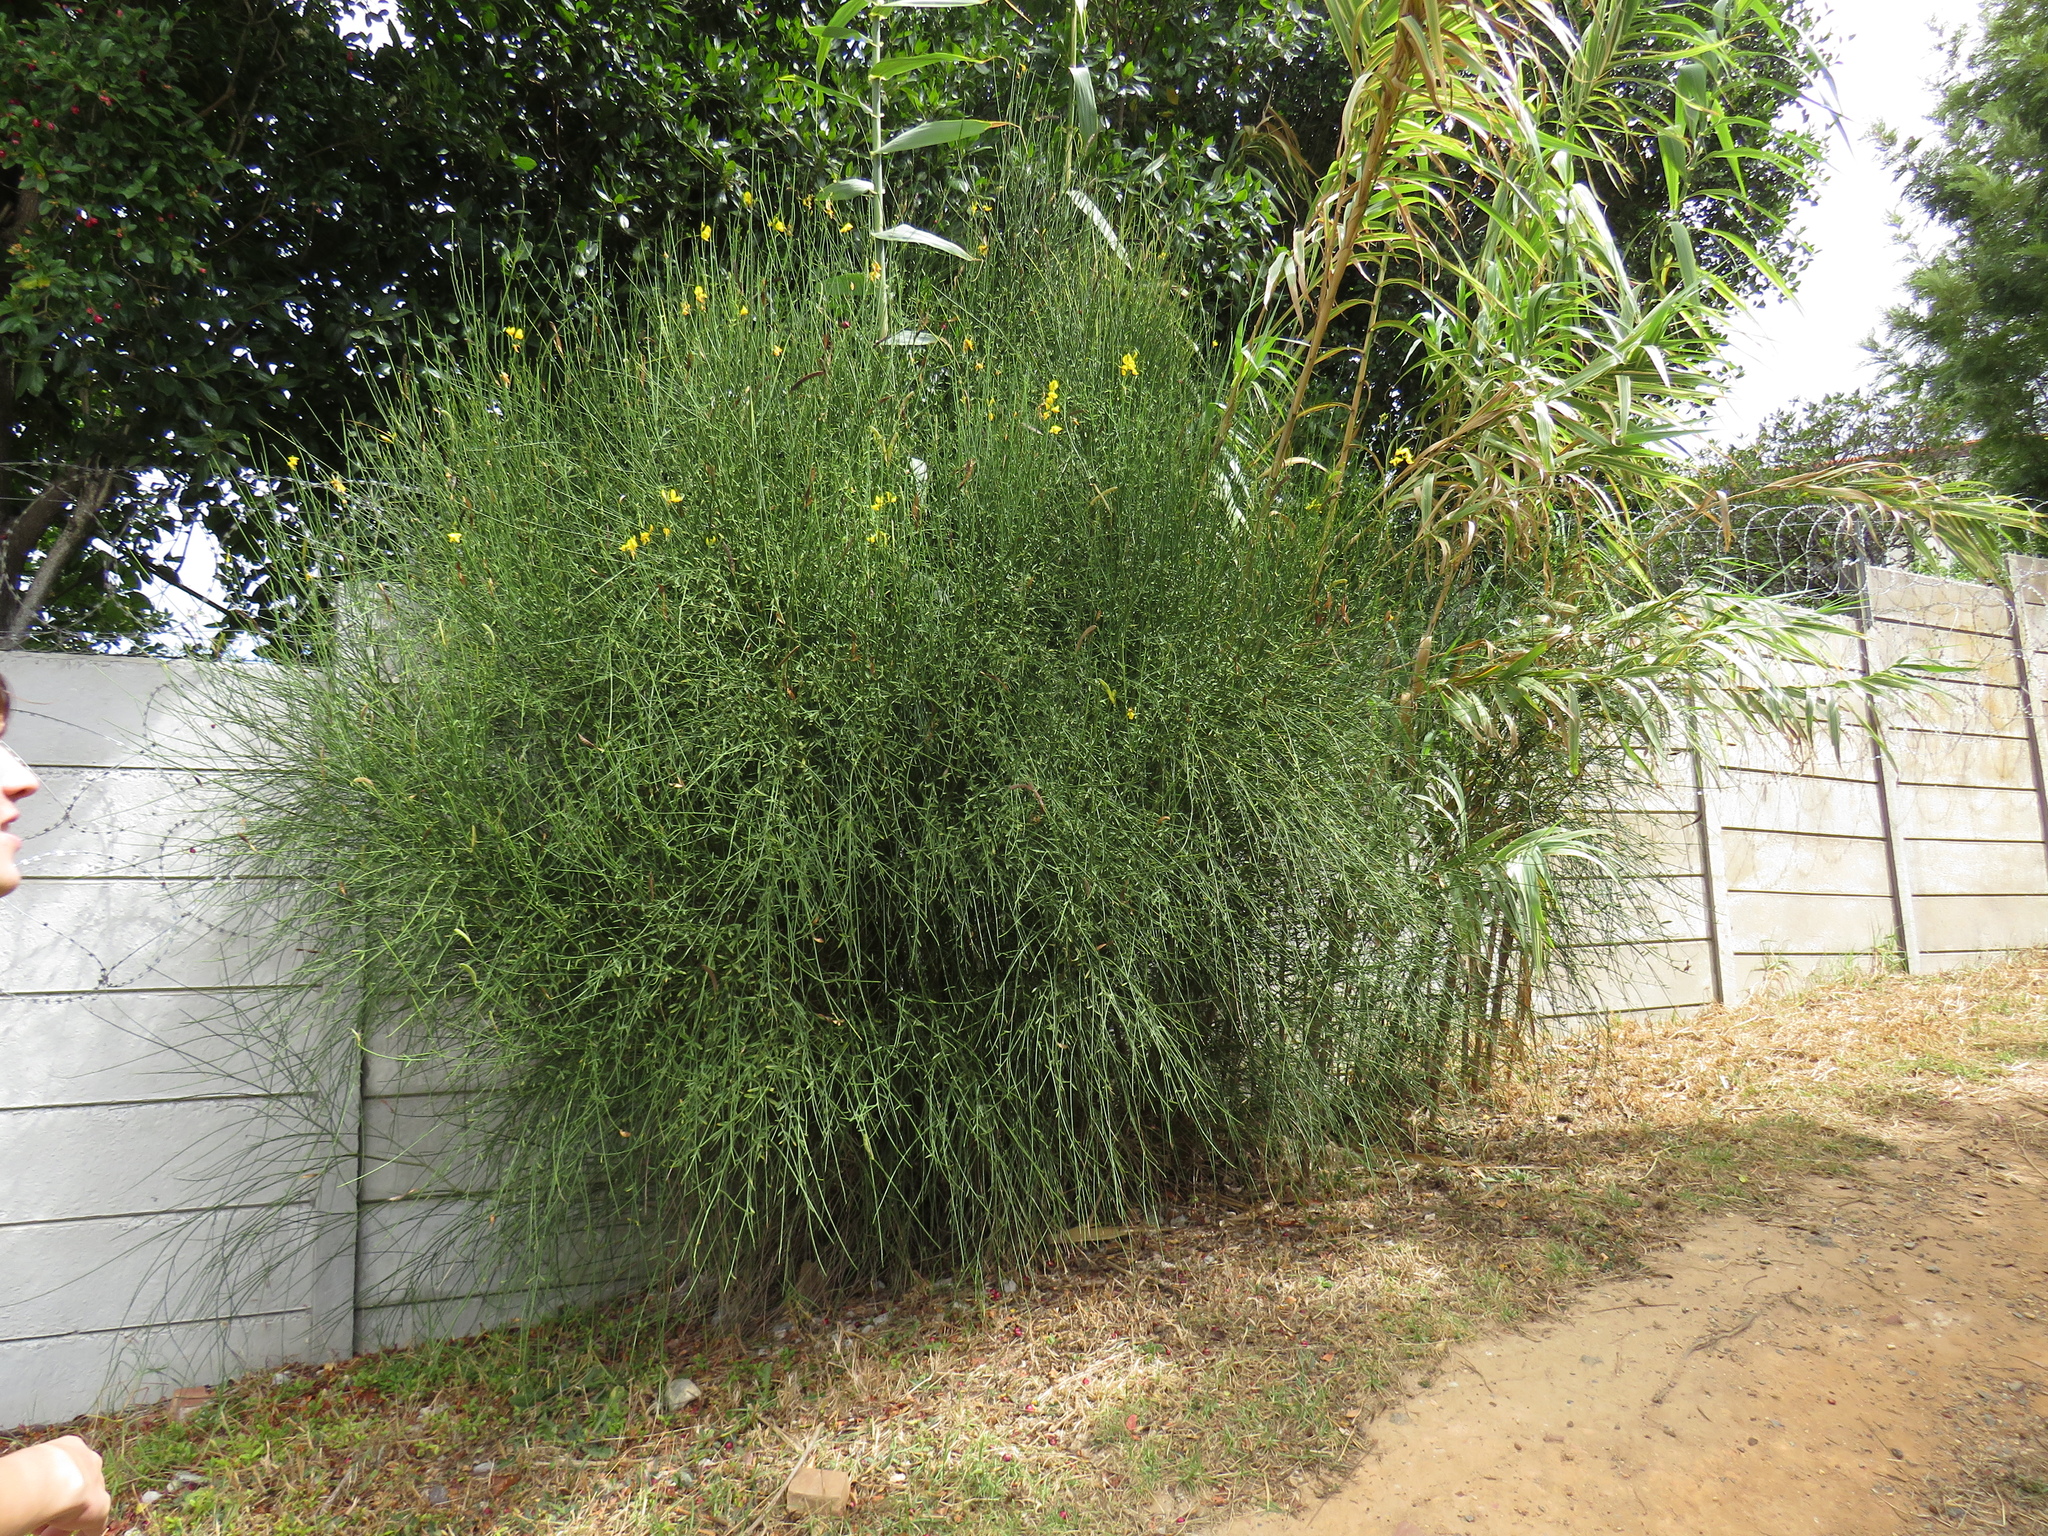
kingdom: Plantae
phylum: Tracheophyta
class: Magnoliopsida
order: Fabales
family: Fabaceae
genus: Spartium
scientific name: Spartium junceum
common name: Spanish broom
